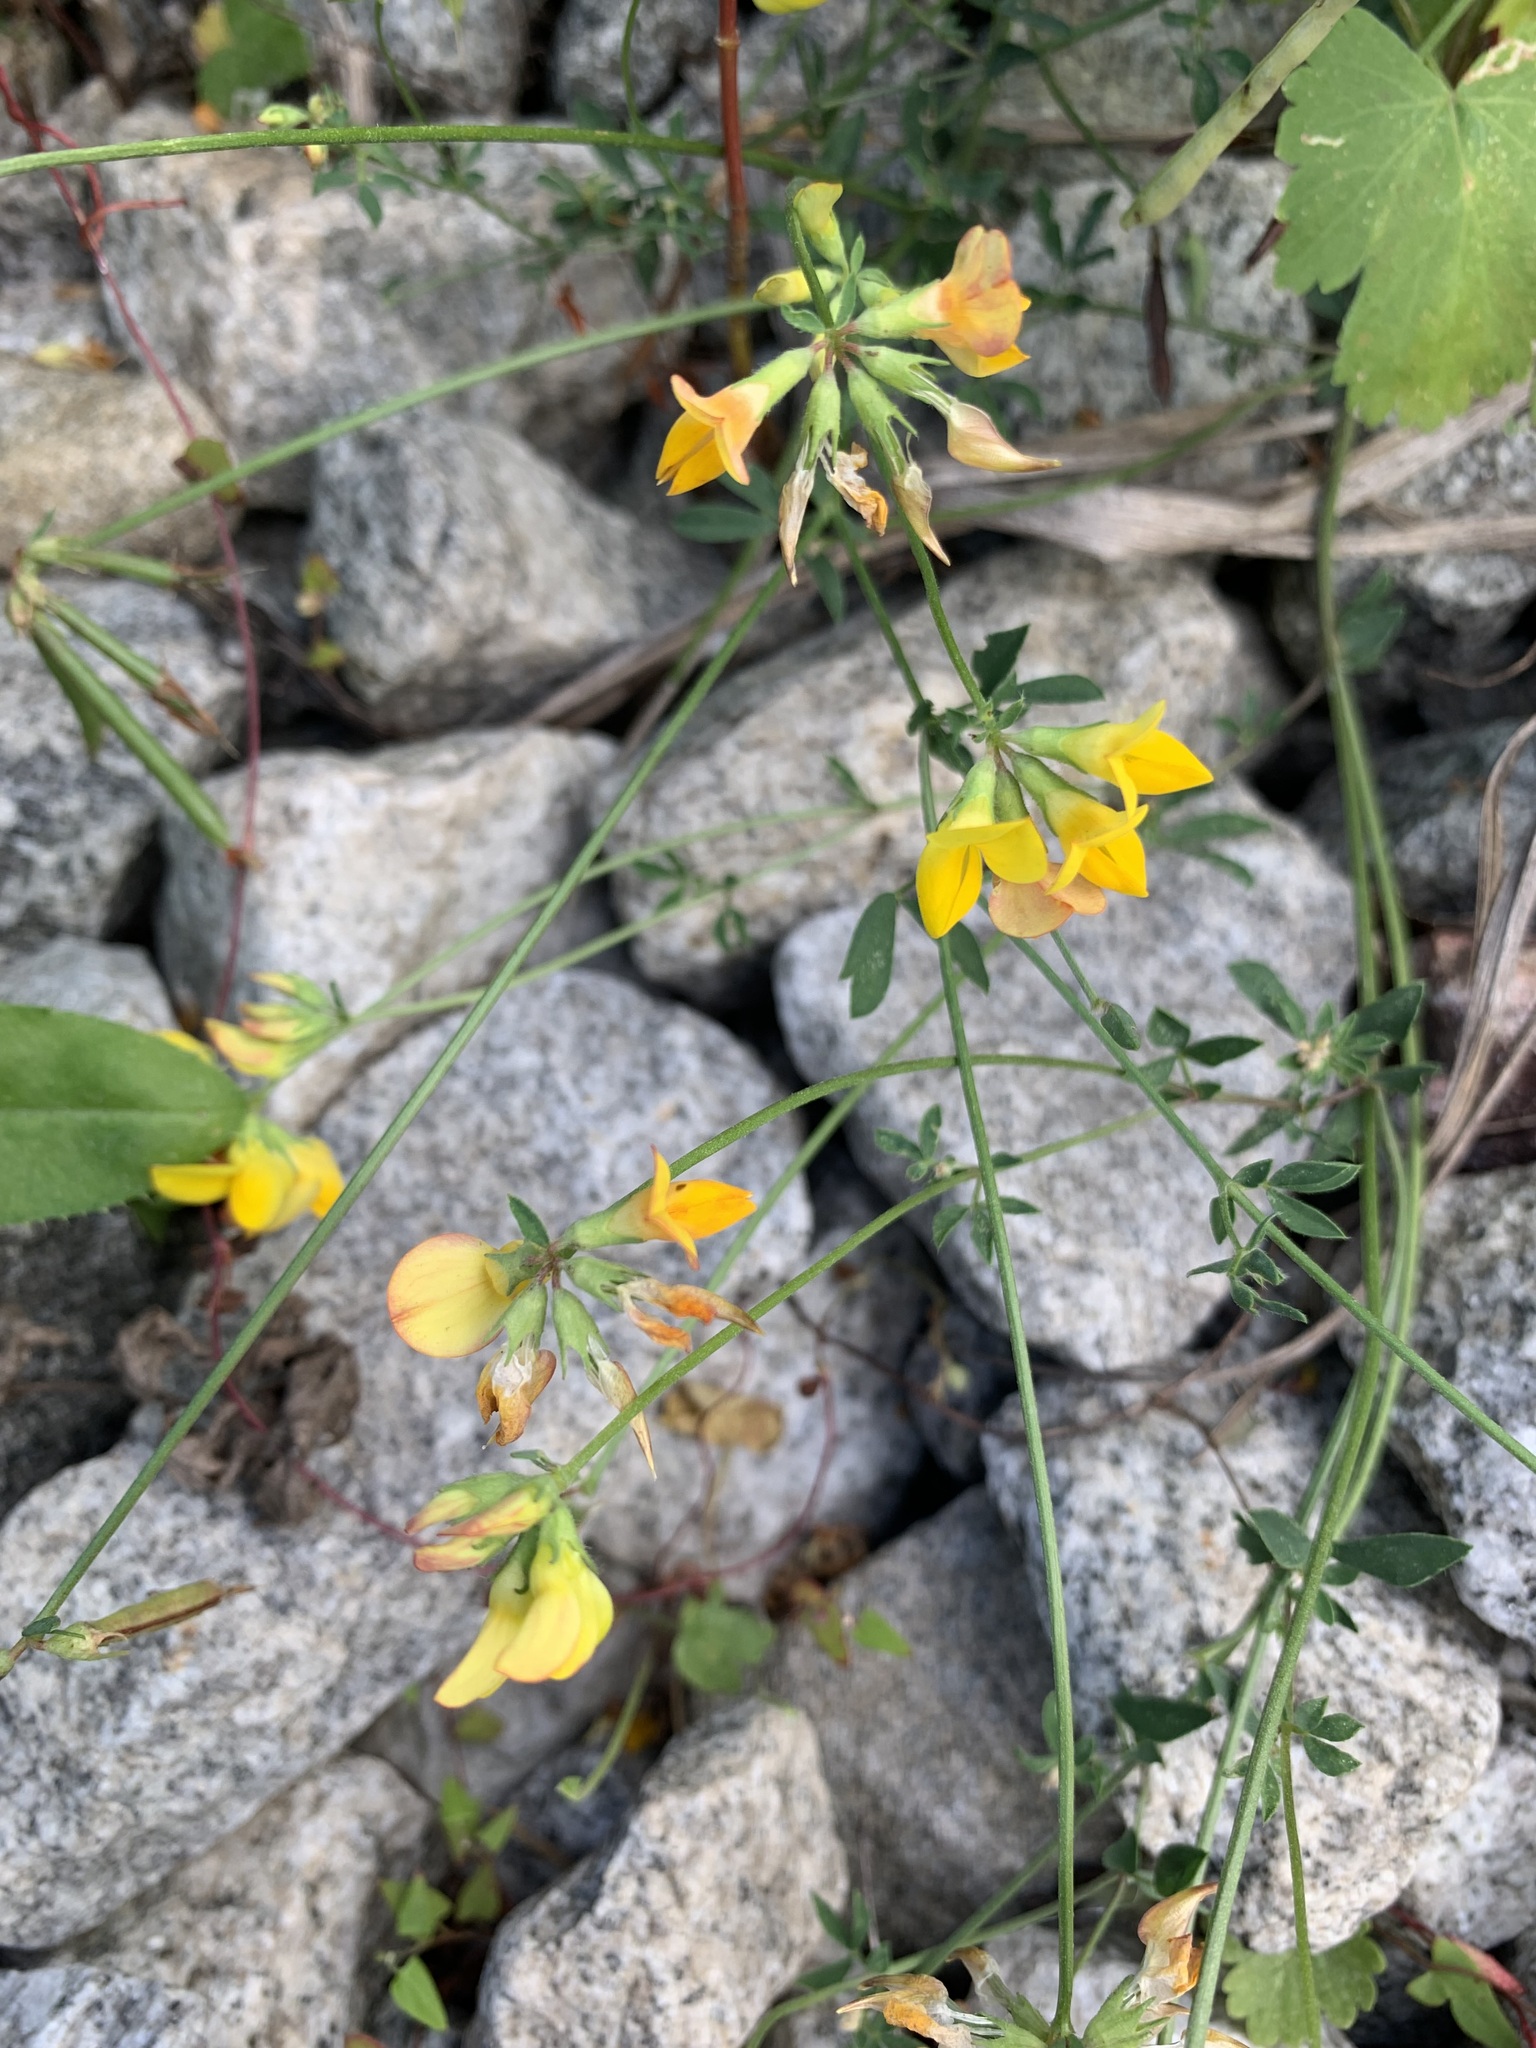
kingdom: Plantae
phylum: Tracheophyta
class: Magnoliopsida
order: Fabales
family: Fabaceae
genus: Lotus
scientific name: Lotus corniculatus
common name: Common bird's-foot-trefoil
